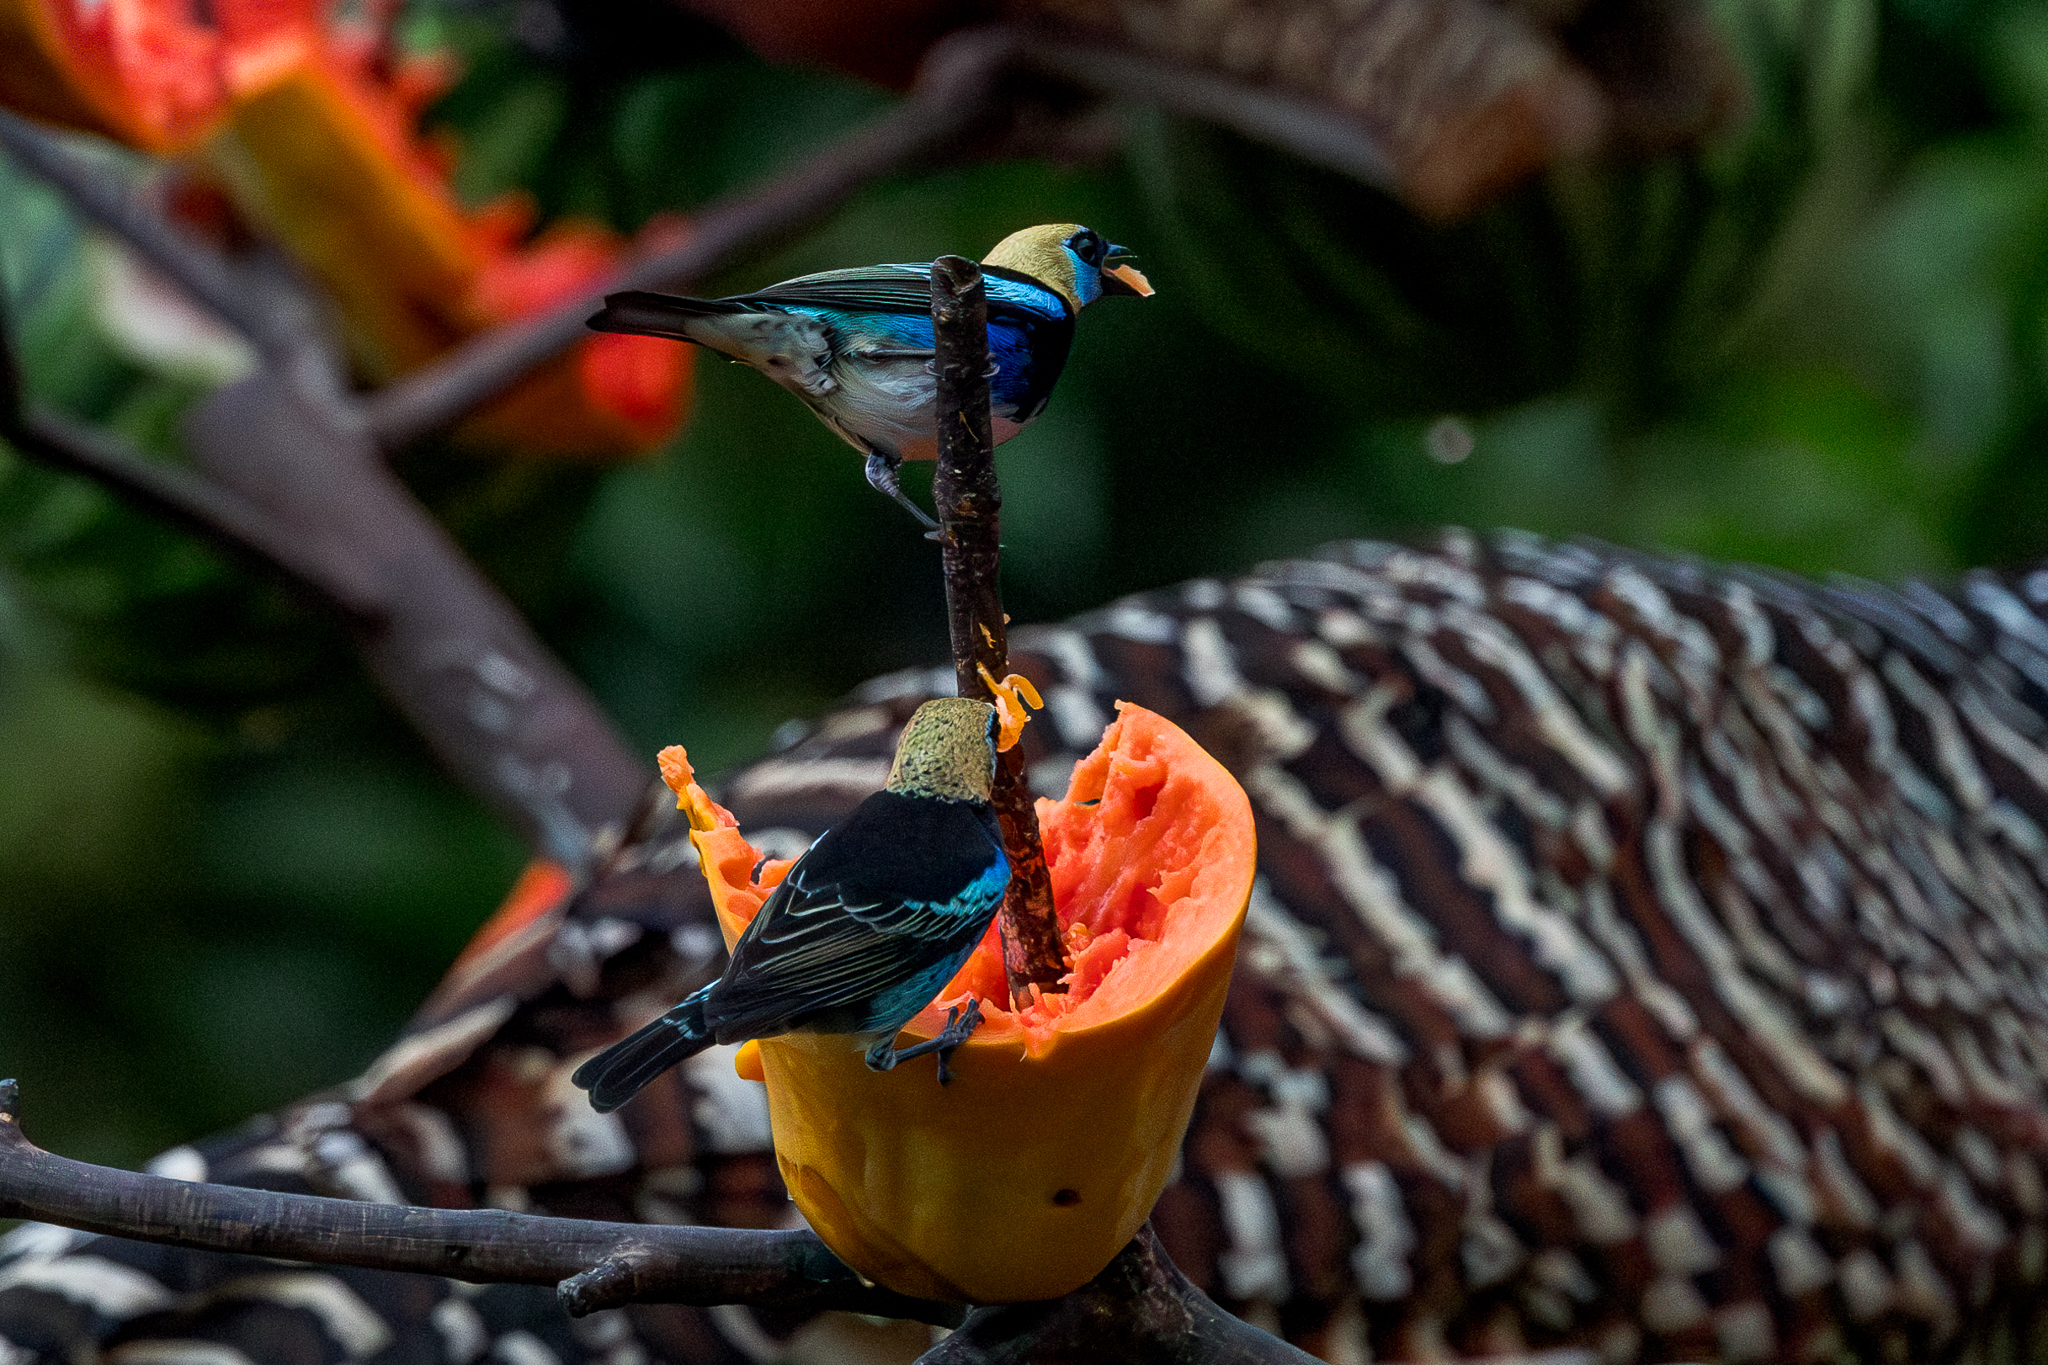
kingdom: Animalia
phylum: Chordata
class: Aves
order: Passeriformes
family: Thraupidae
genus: Stilpnia
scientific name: Stilpnia larvata
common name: Golden-hooded tanager
